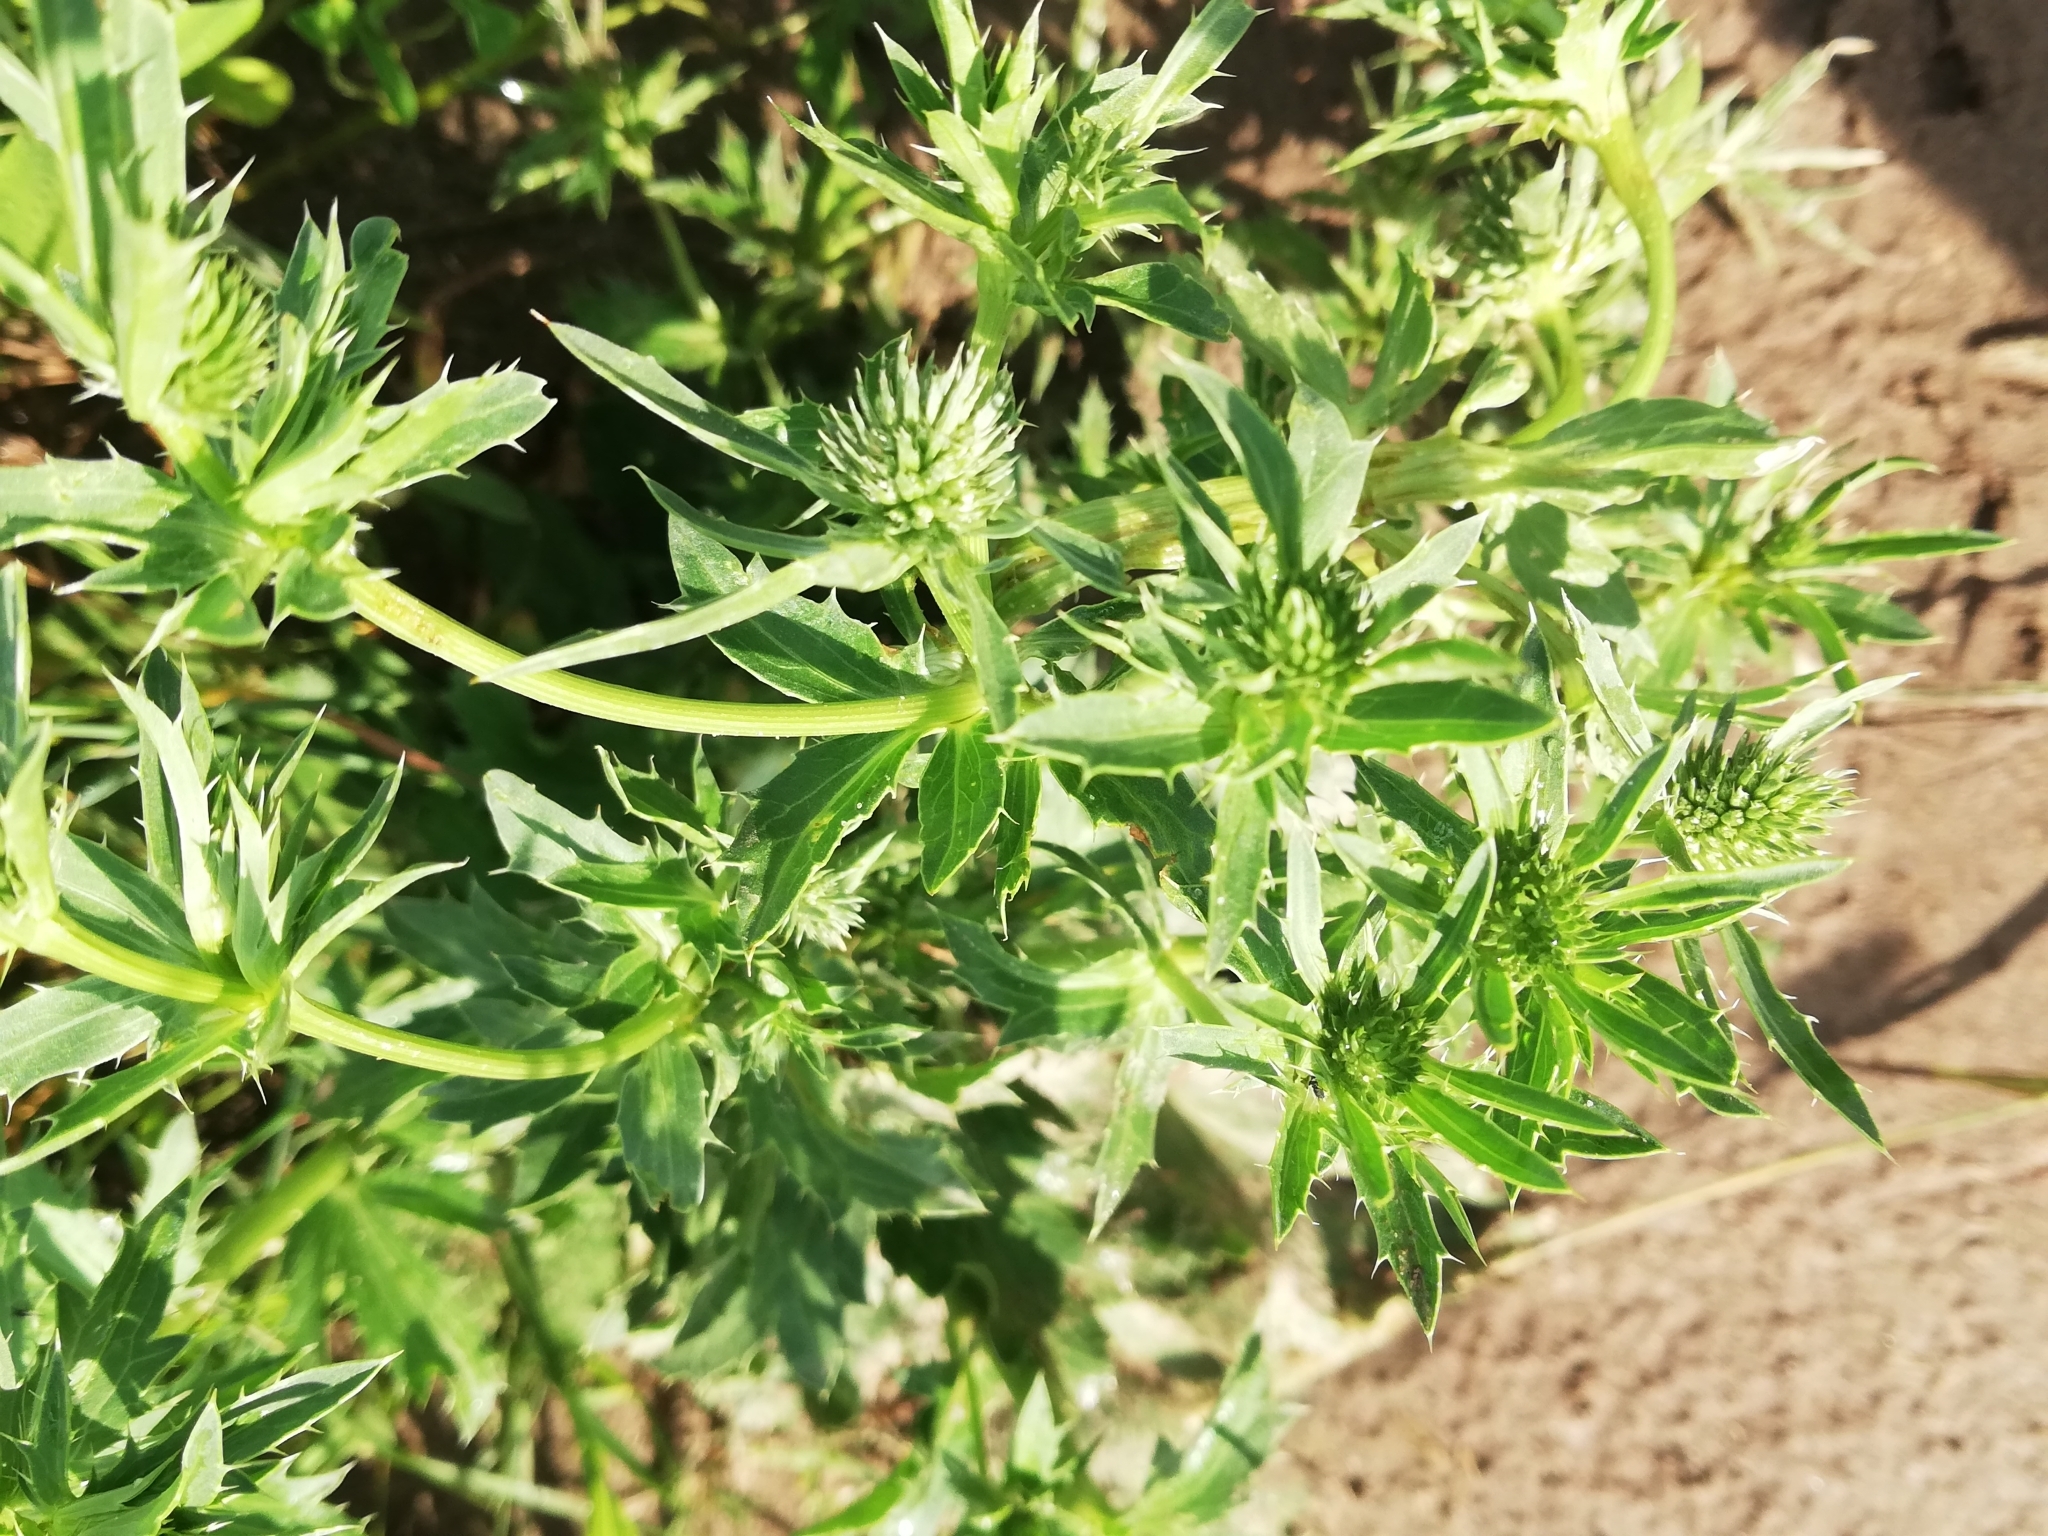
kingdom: Plantae
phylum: Tracheophyta
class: Magnoliopsida
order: Apiales
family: Apiaceae
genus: Eryngium
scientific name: Eryngium planum
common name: Blue eryngo
